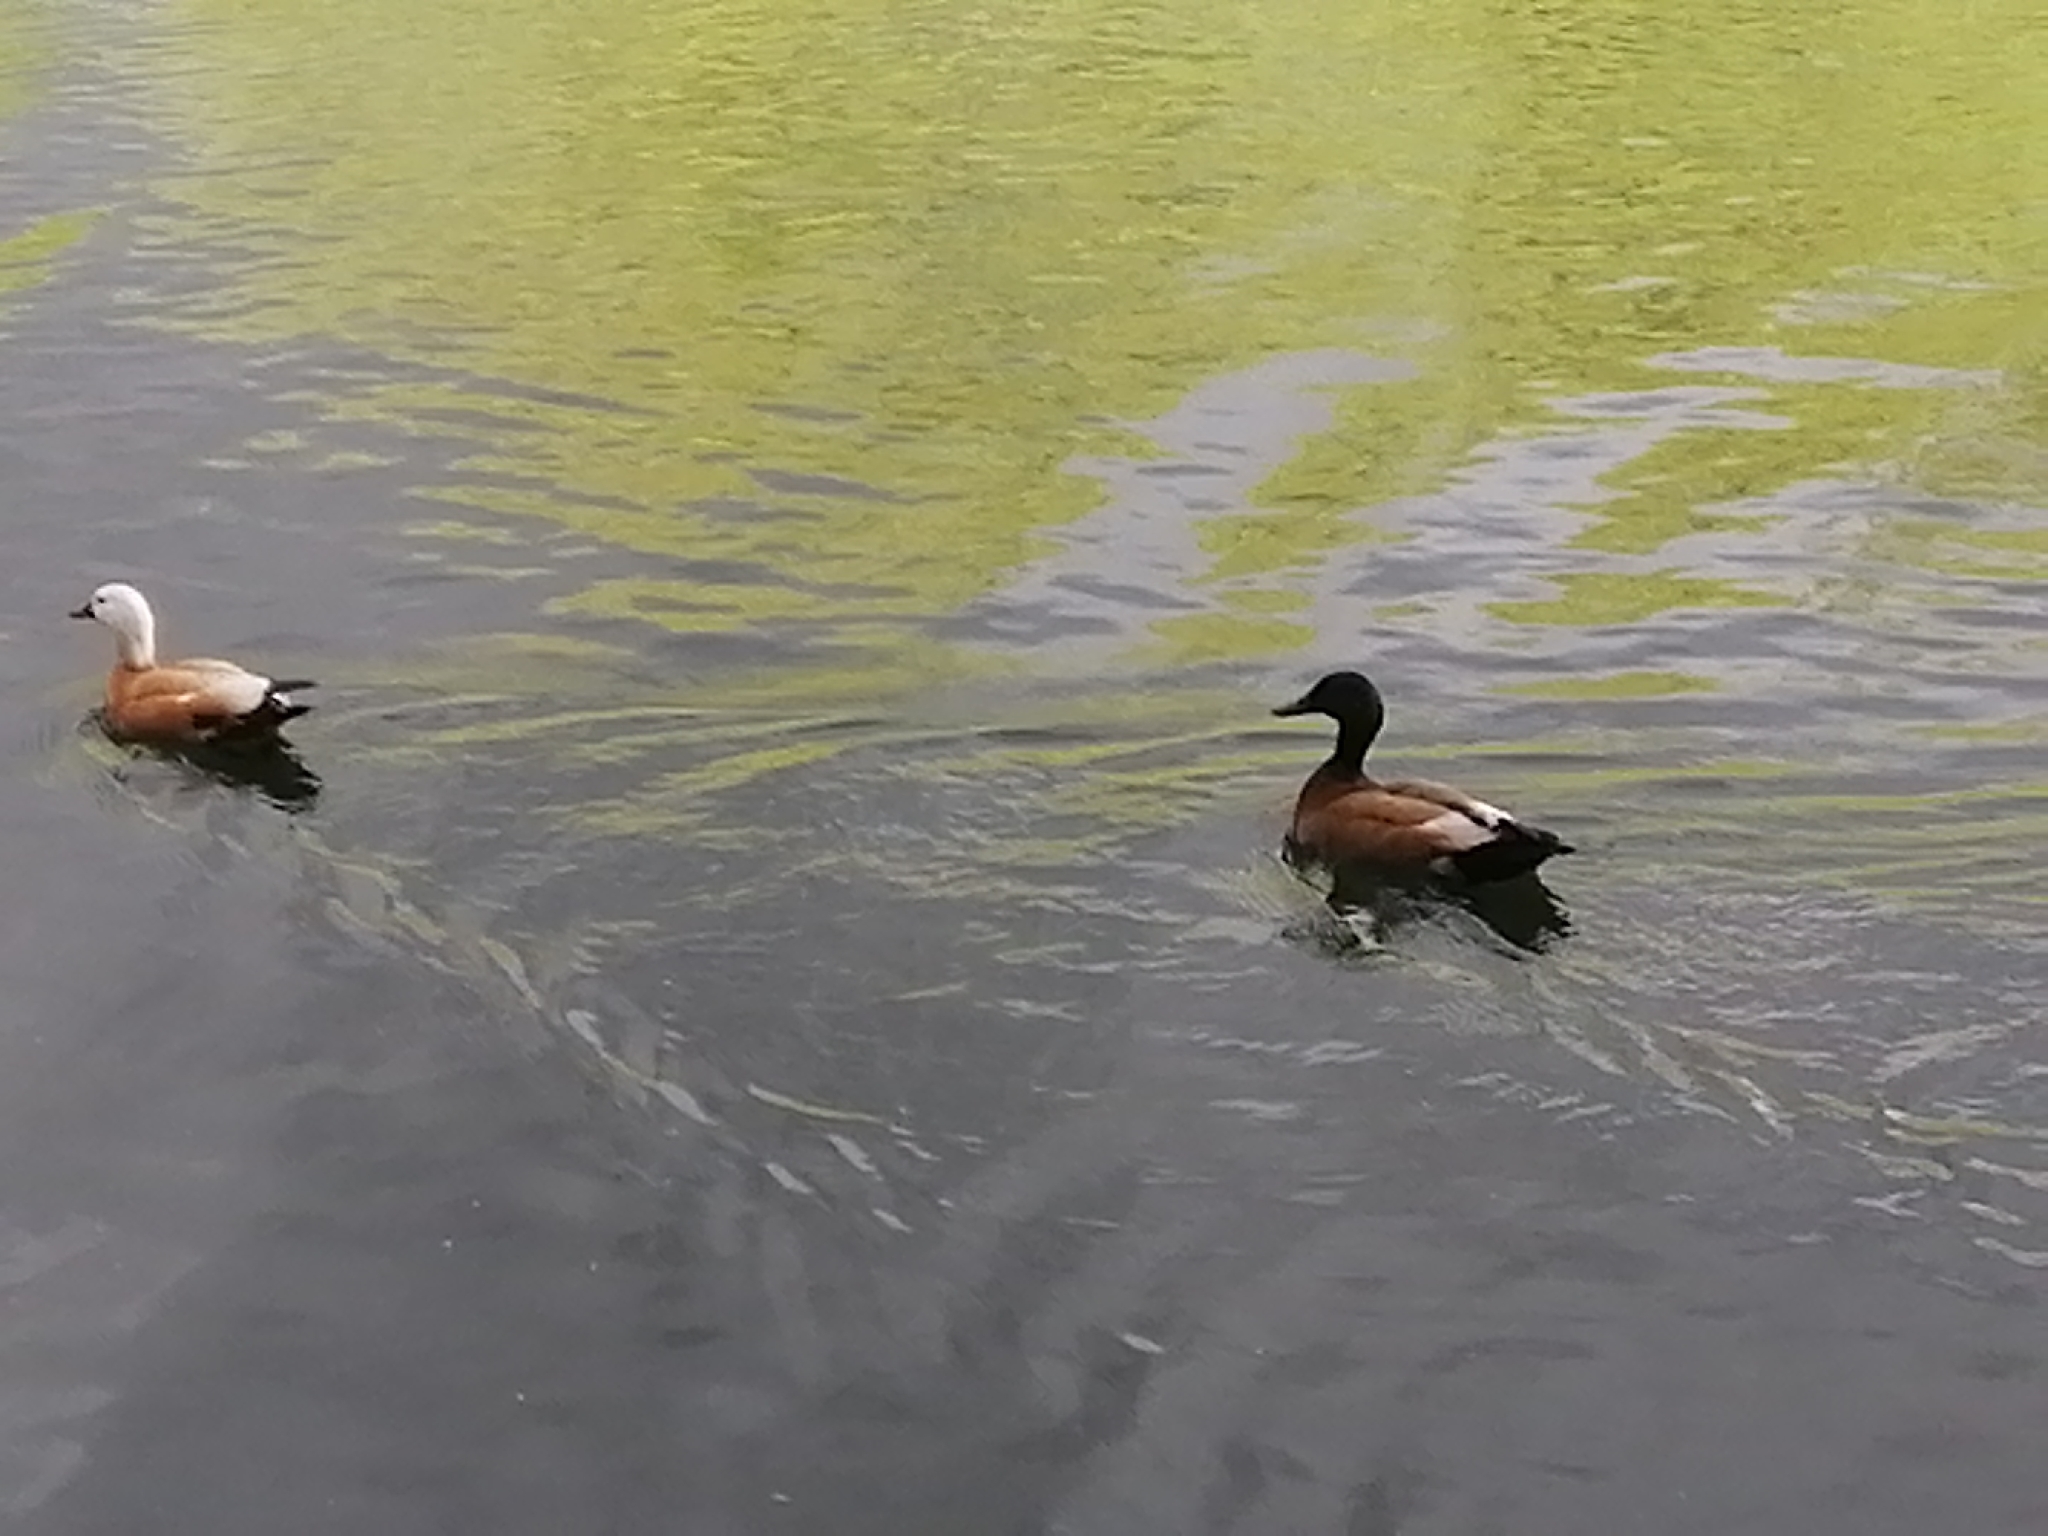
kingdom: Animalia
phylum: Chordata
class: Aves
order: Anseriformes
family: Anatidae
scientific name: Anatidae
